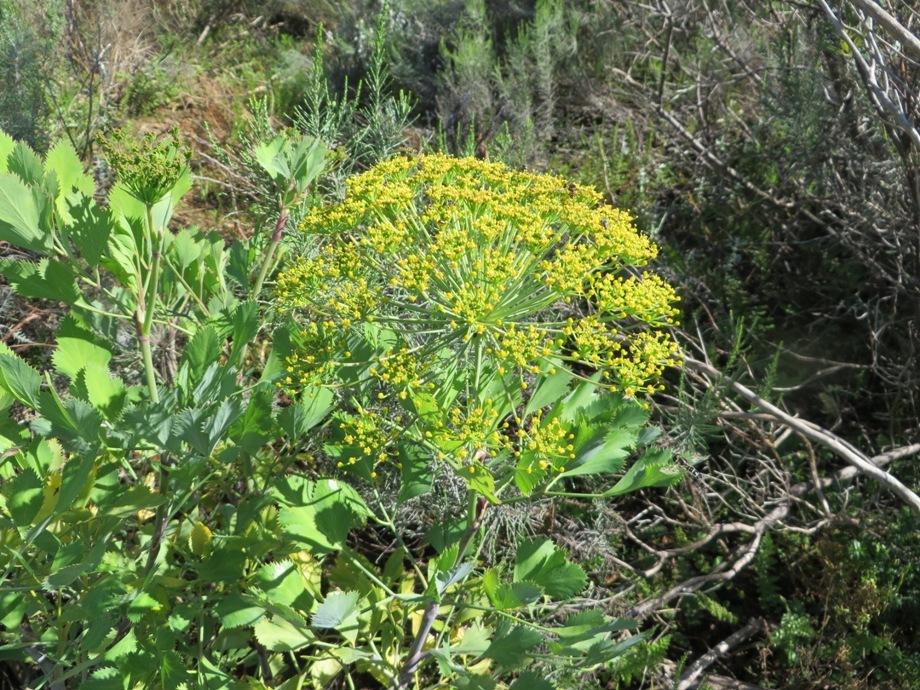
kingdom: Plantae
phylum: Tracheophyta
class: Magnoliopsida
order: Apiales
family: Apiaceae
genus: Notobubon
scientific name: Notobubon galbanum
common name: Blisterbush
